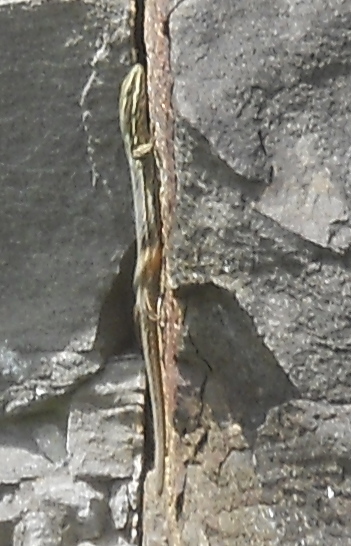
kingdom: Animalia
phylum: Chordata
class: Squamata
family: Lacertidae
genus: Podarcis
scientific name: Podarcis muralis
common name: Common wall lizard
